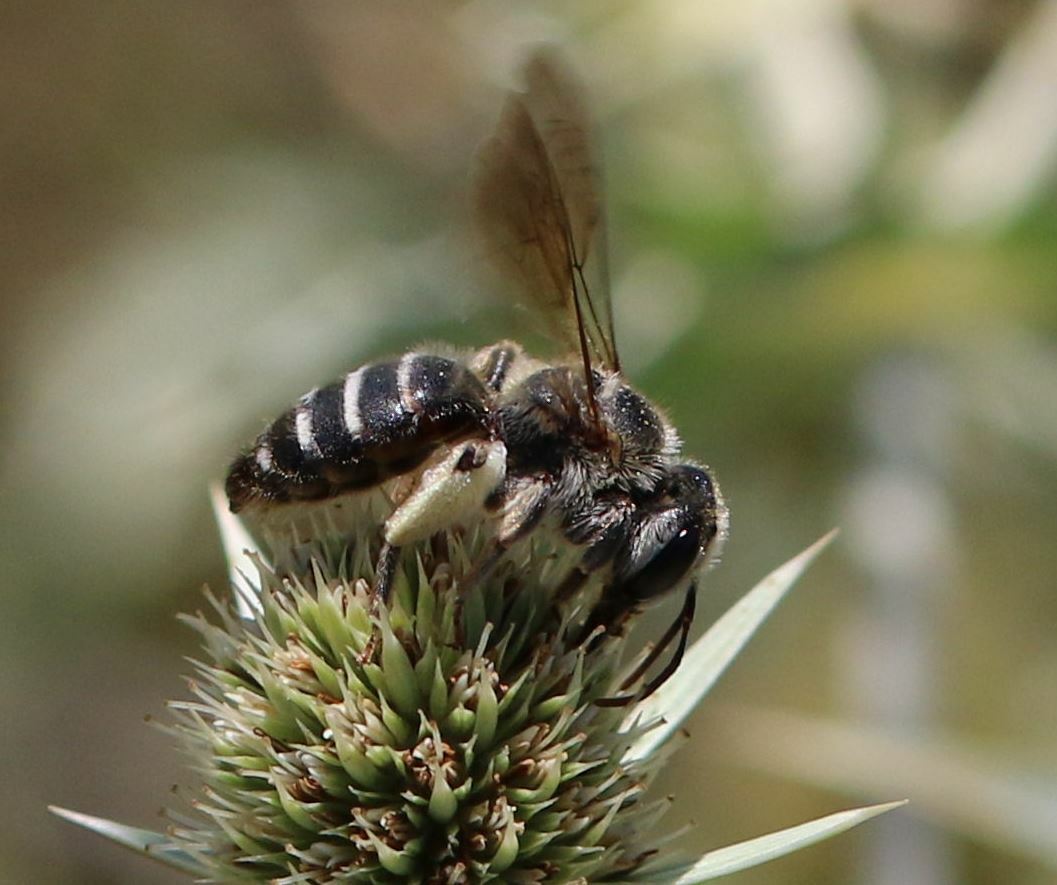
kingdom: Animalia
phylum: Arthropoda
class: Insecta
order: Hymenoptera
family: Andrenidae
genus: Andrena
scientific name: Andrena variabilis
